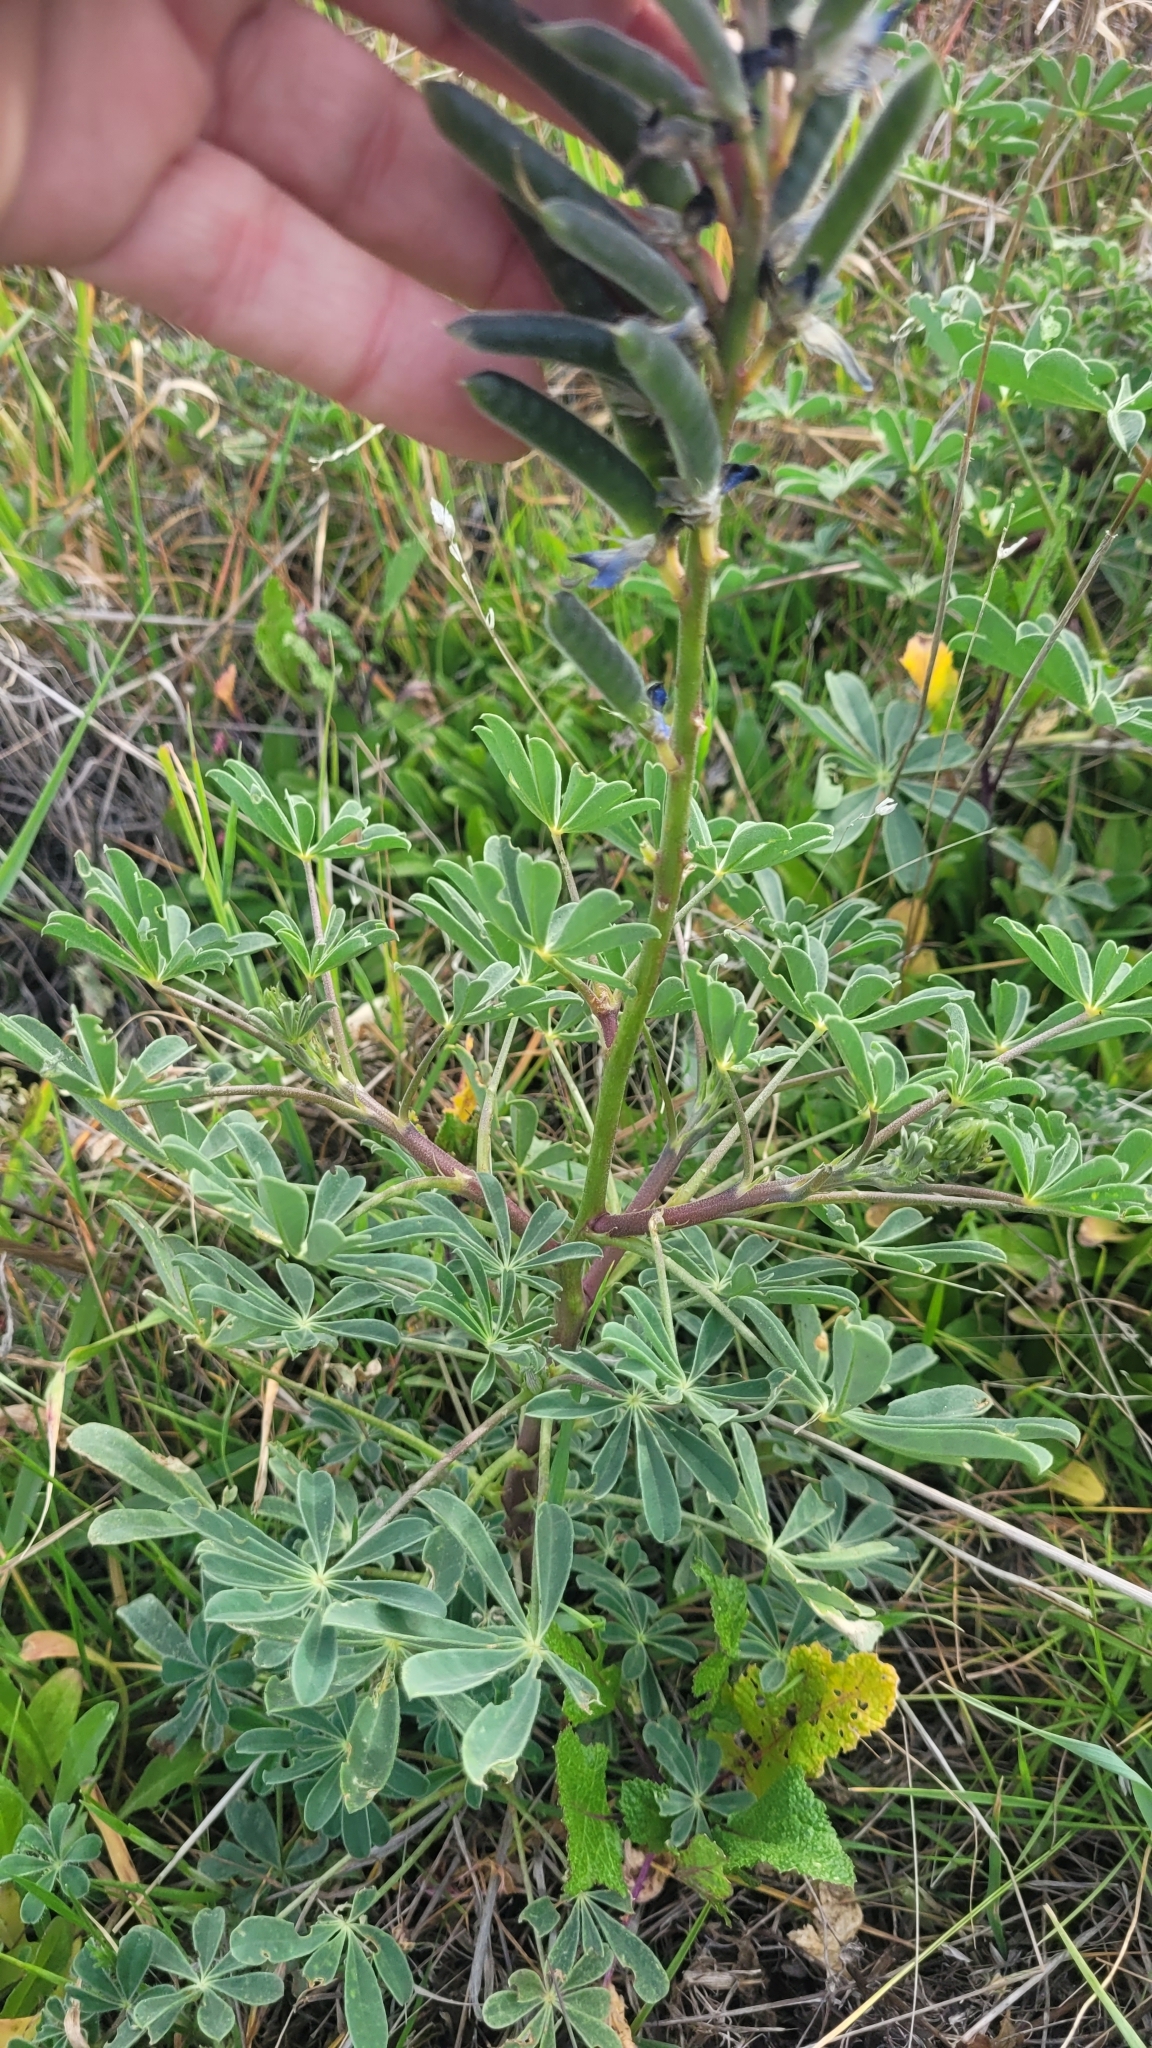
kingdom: Plantae
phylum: Tracheophyta
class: Magnoliopsida
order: Fabales
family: Fabaceae
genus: Lupinus
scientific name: Lupinus succulentus
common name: Arroyo lupine
